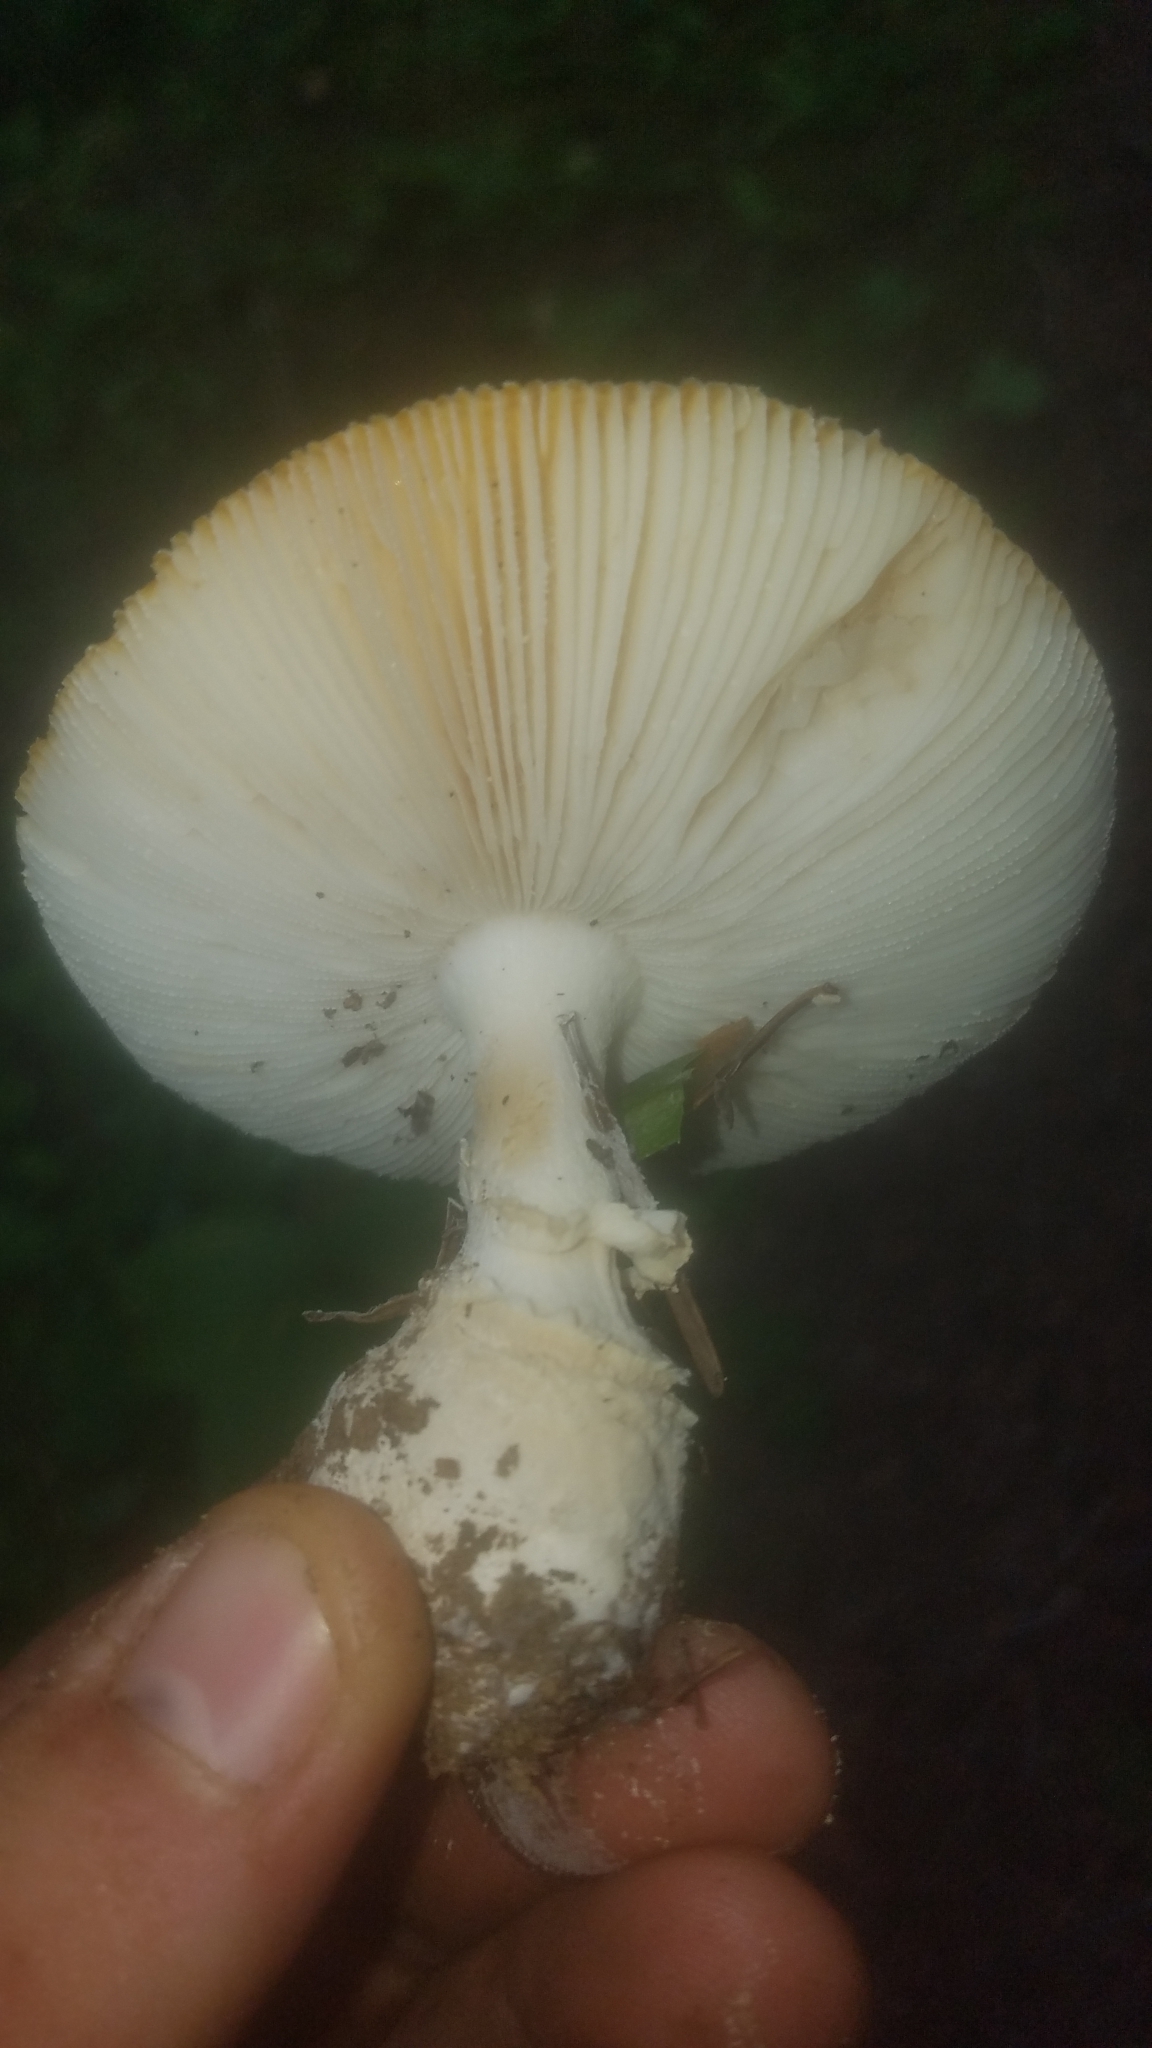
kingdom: Fungi
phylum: Basidiomycota
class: Agaricomycetes
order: Agaricales
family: Amanitaceae
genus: Amanita
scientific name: Amanita muscaria
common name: Fly agaric
